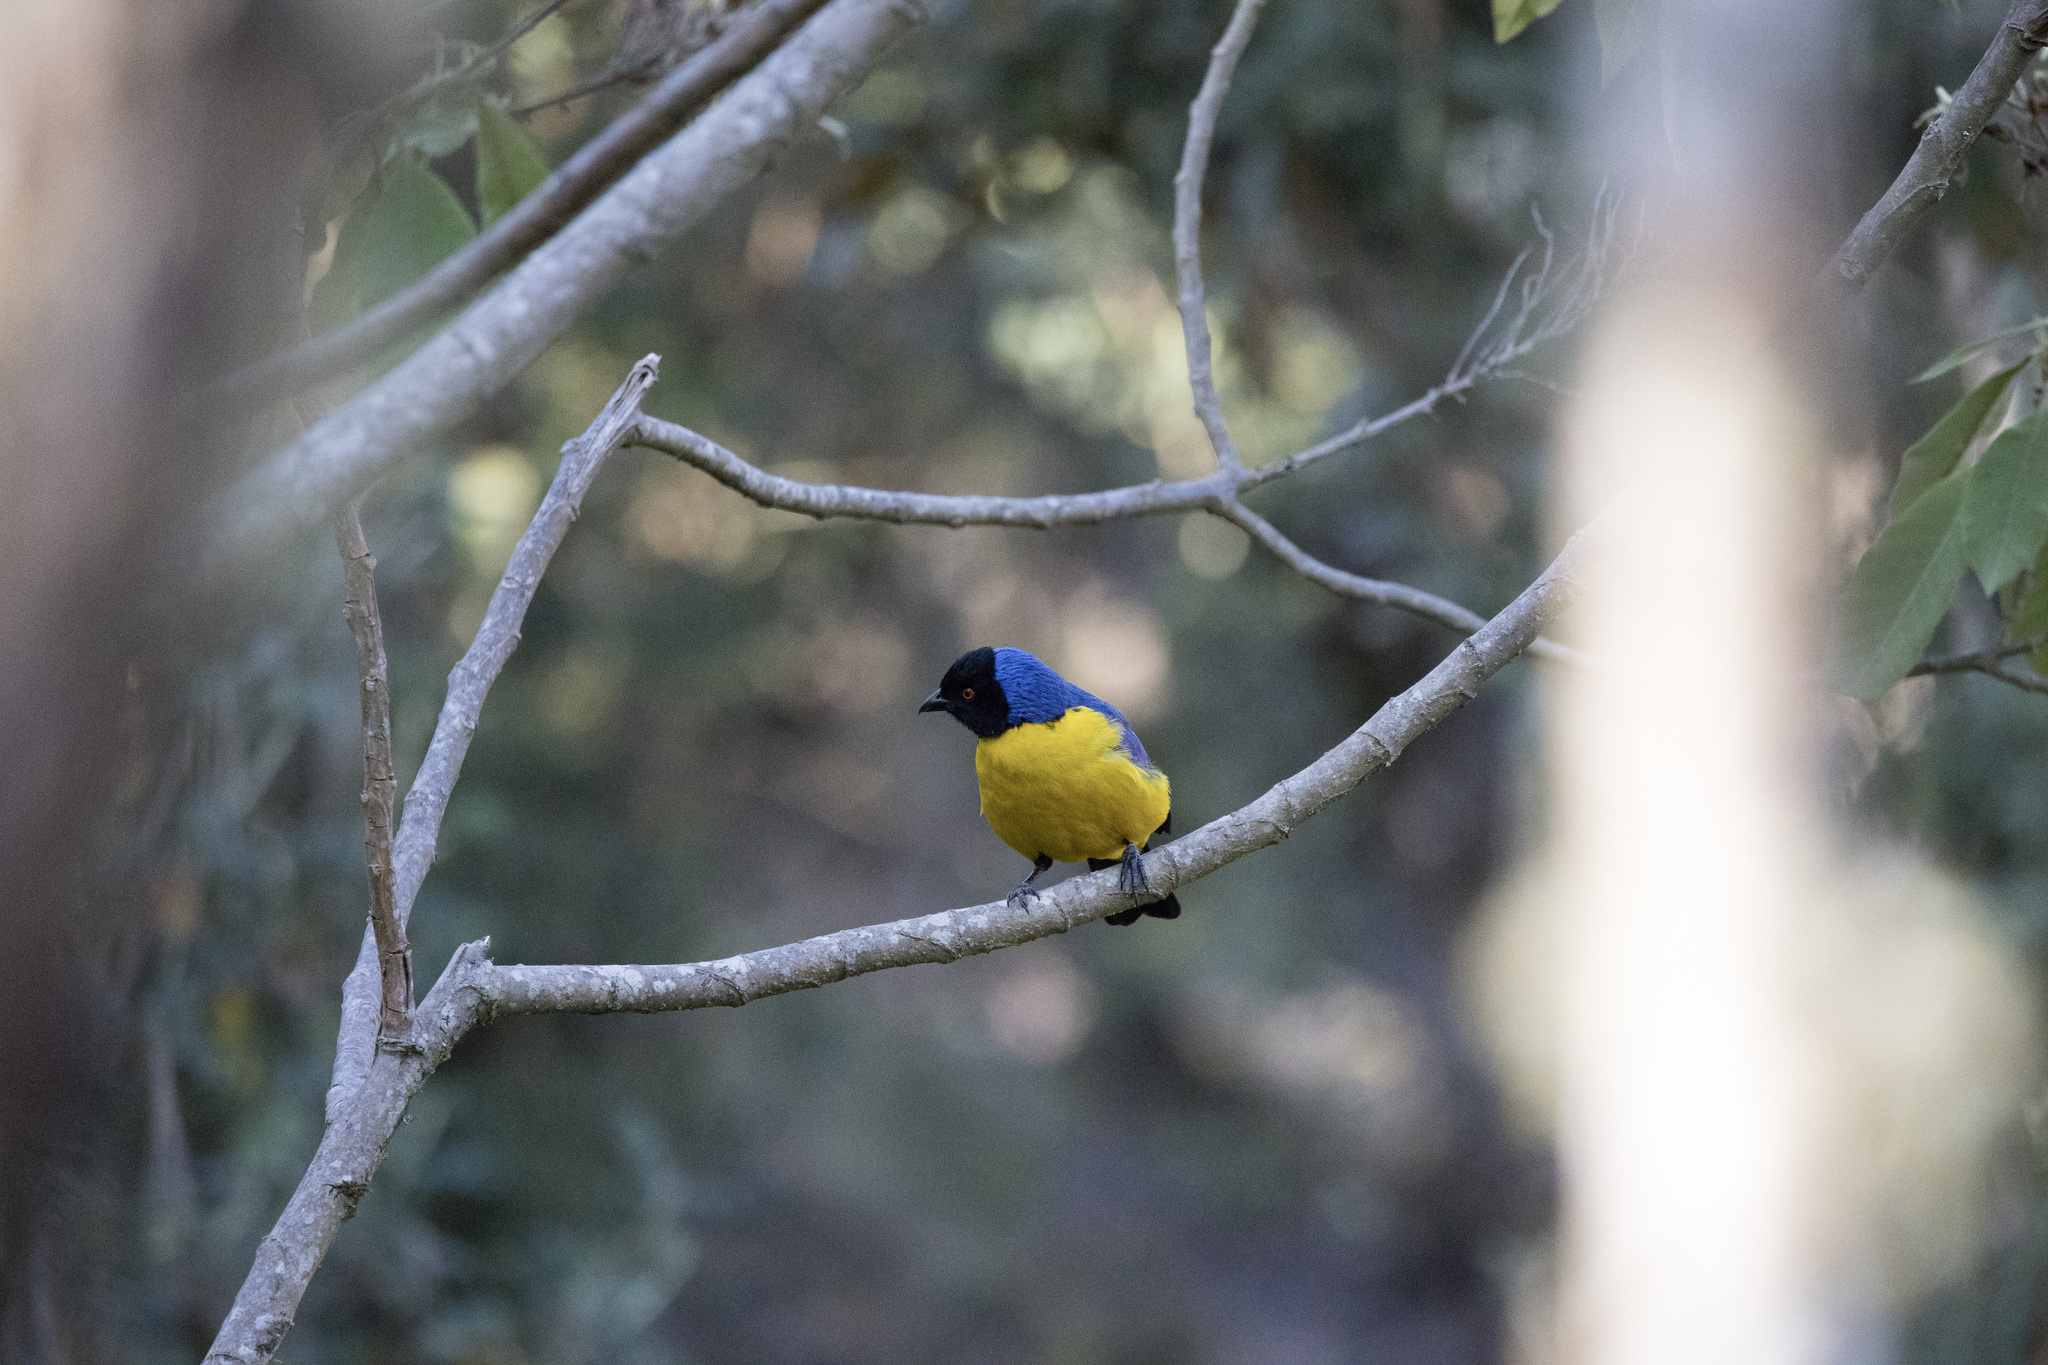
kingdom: Animalia
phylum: Chordata
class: Aves
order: Passeriformes
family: Thraupidae
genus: Buthraupis
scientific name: Buthraupis montana
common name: Hooded mountain tanager
